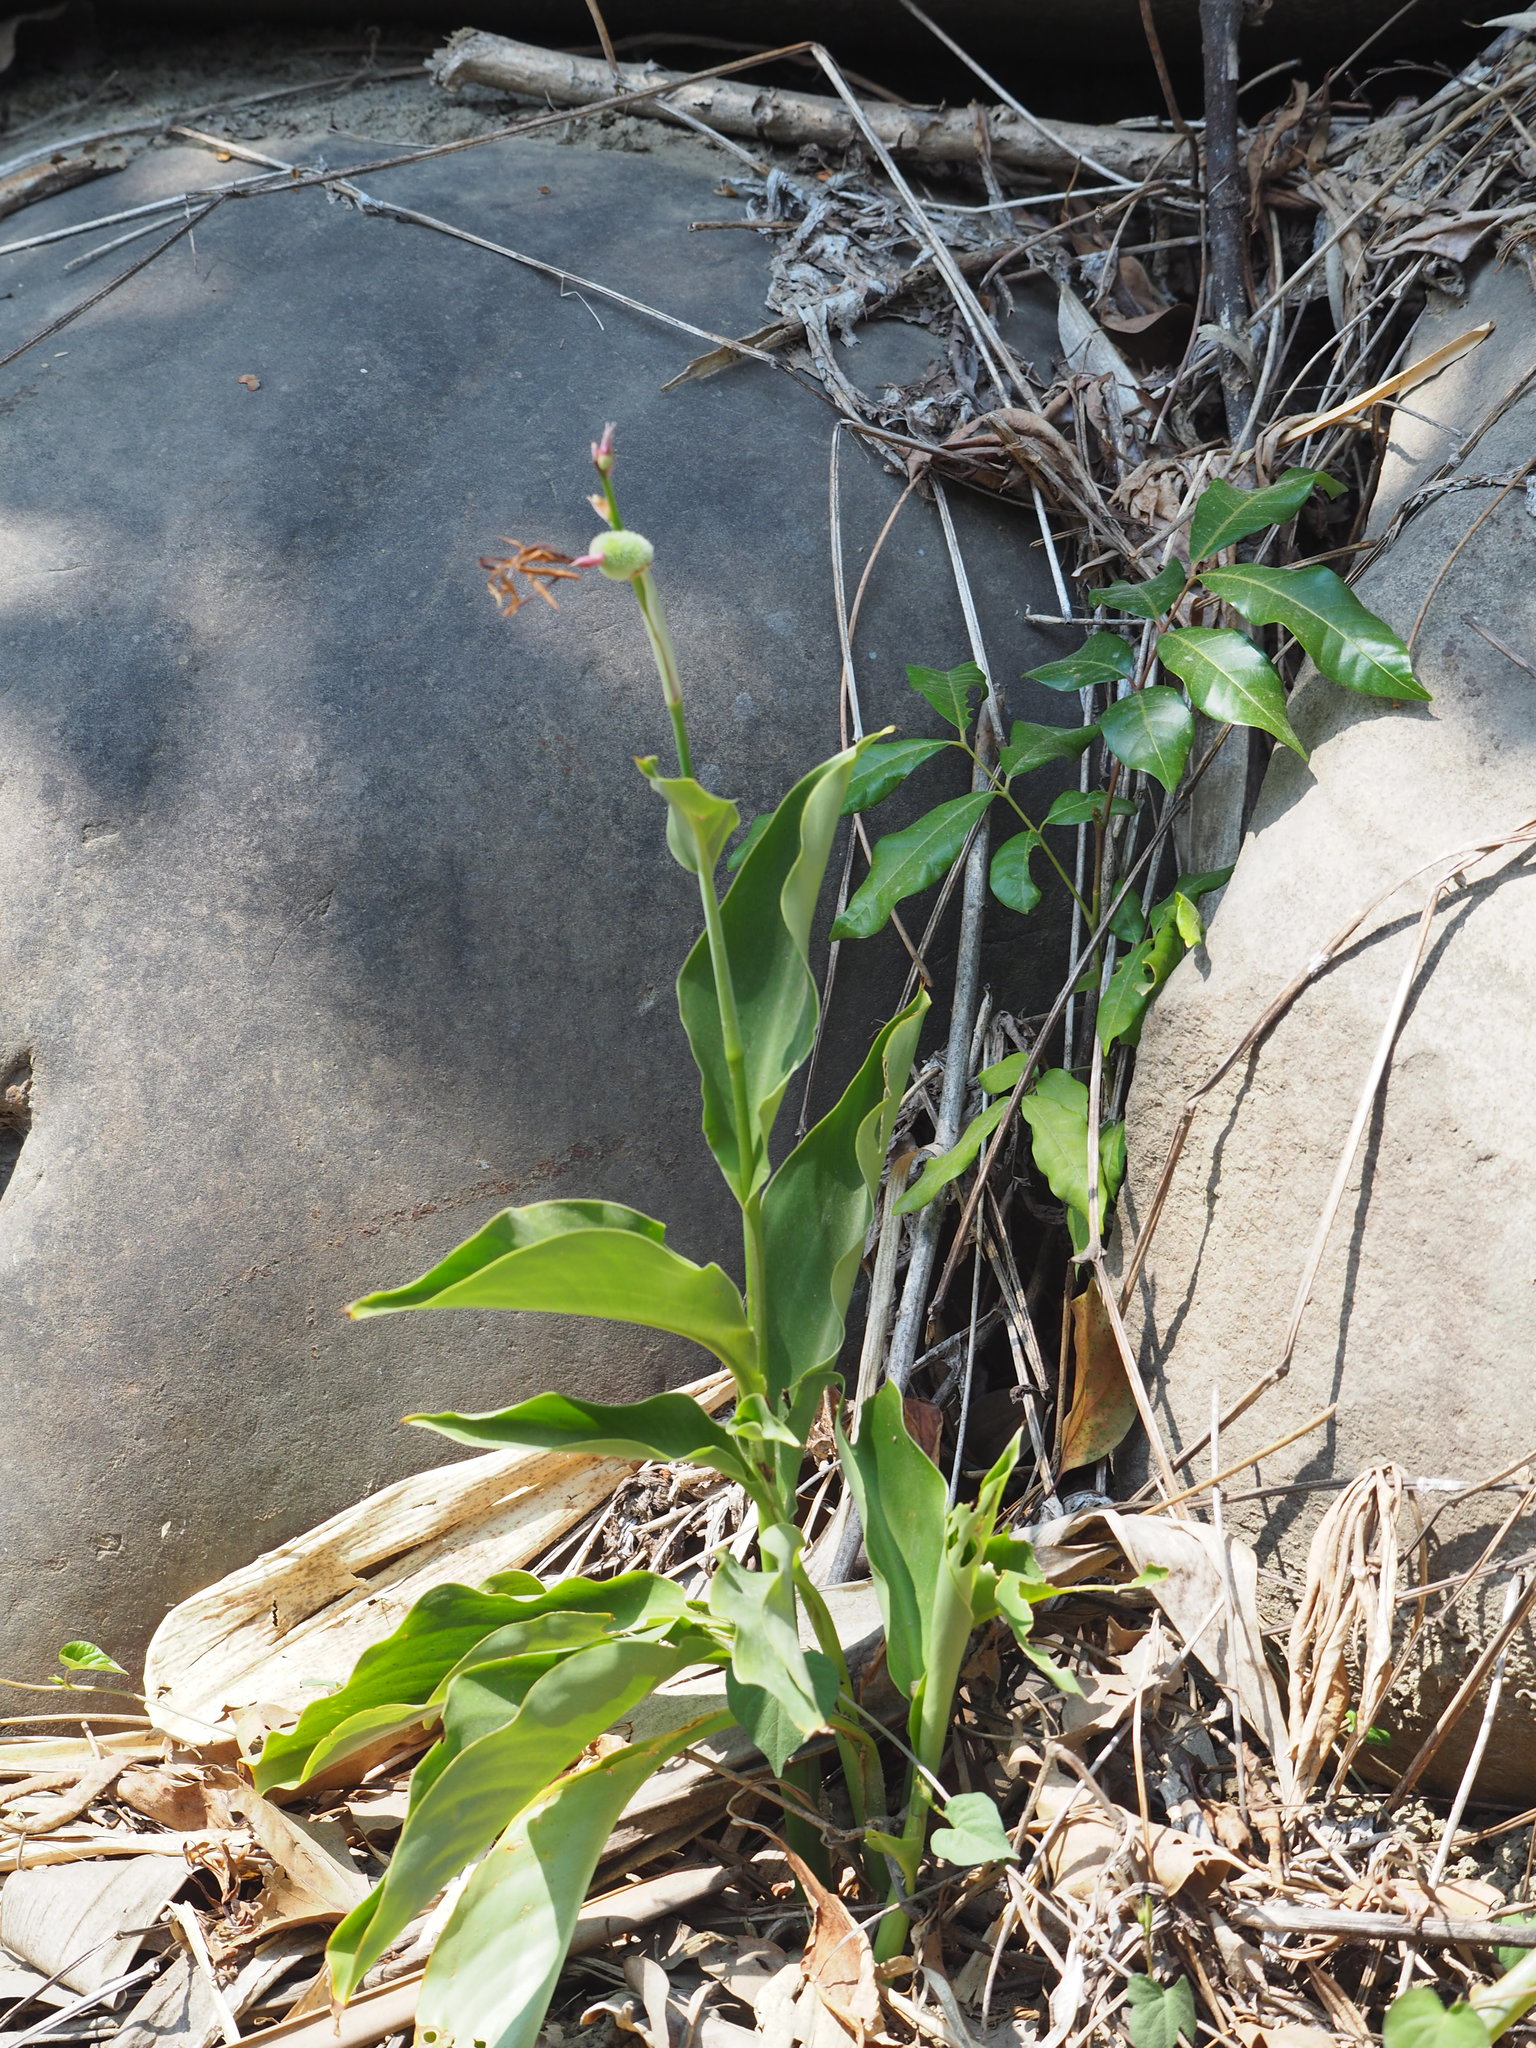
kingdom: Plantae
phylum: Tracheophyta
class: Liliopsida
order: Zingiberales
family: Cannaceae
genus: Canna
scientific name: Canna indica
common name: Indian shot
